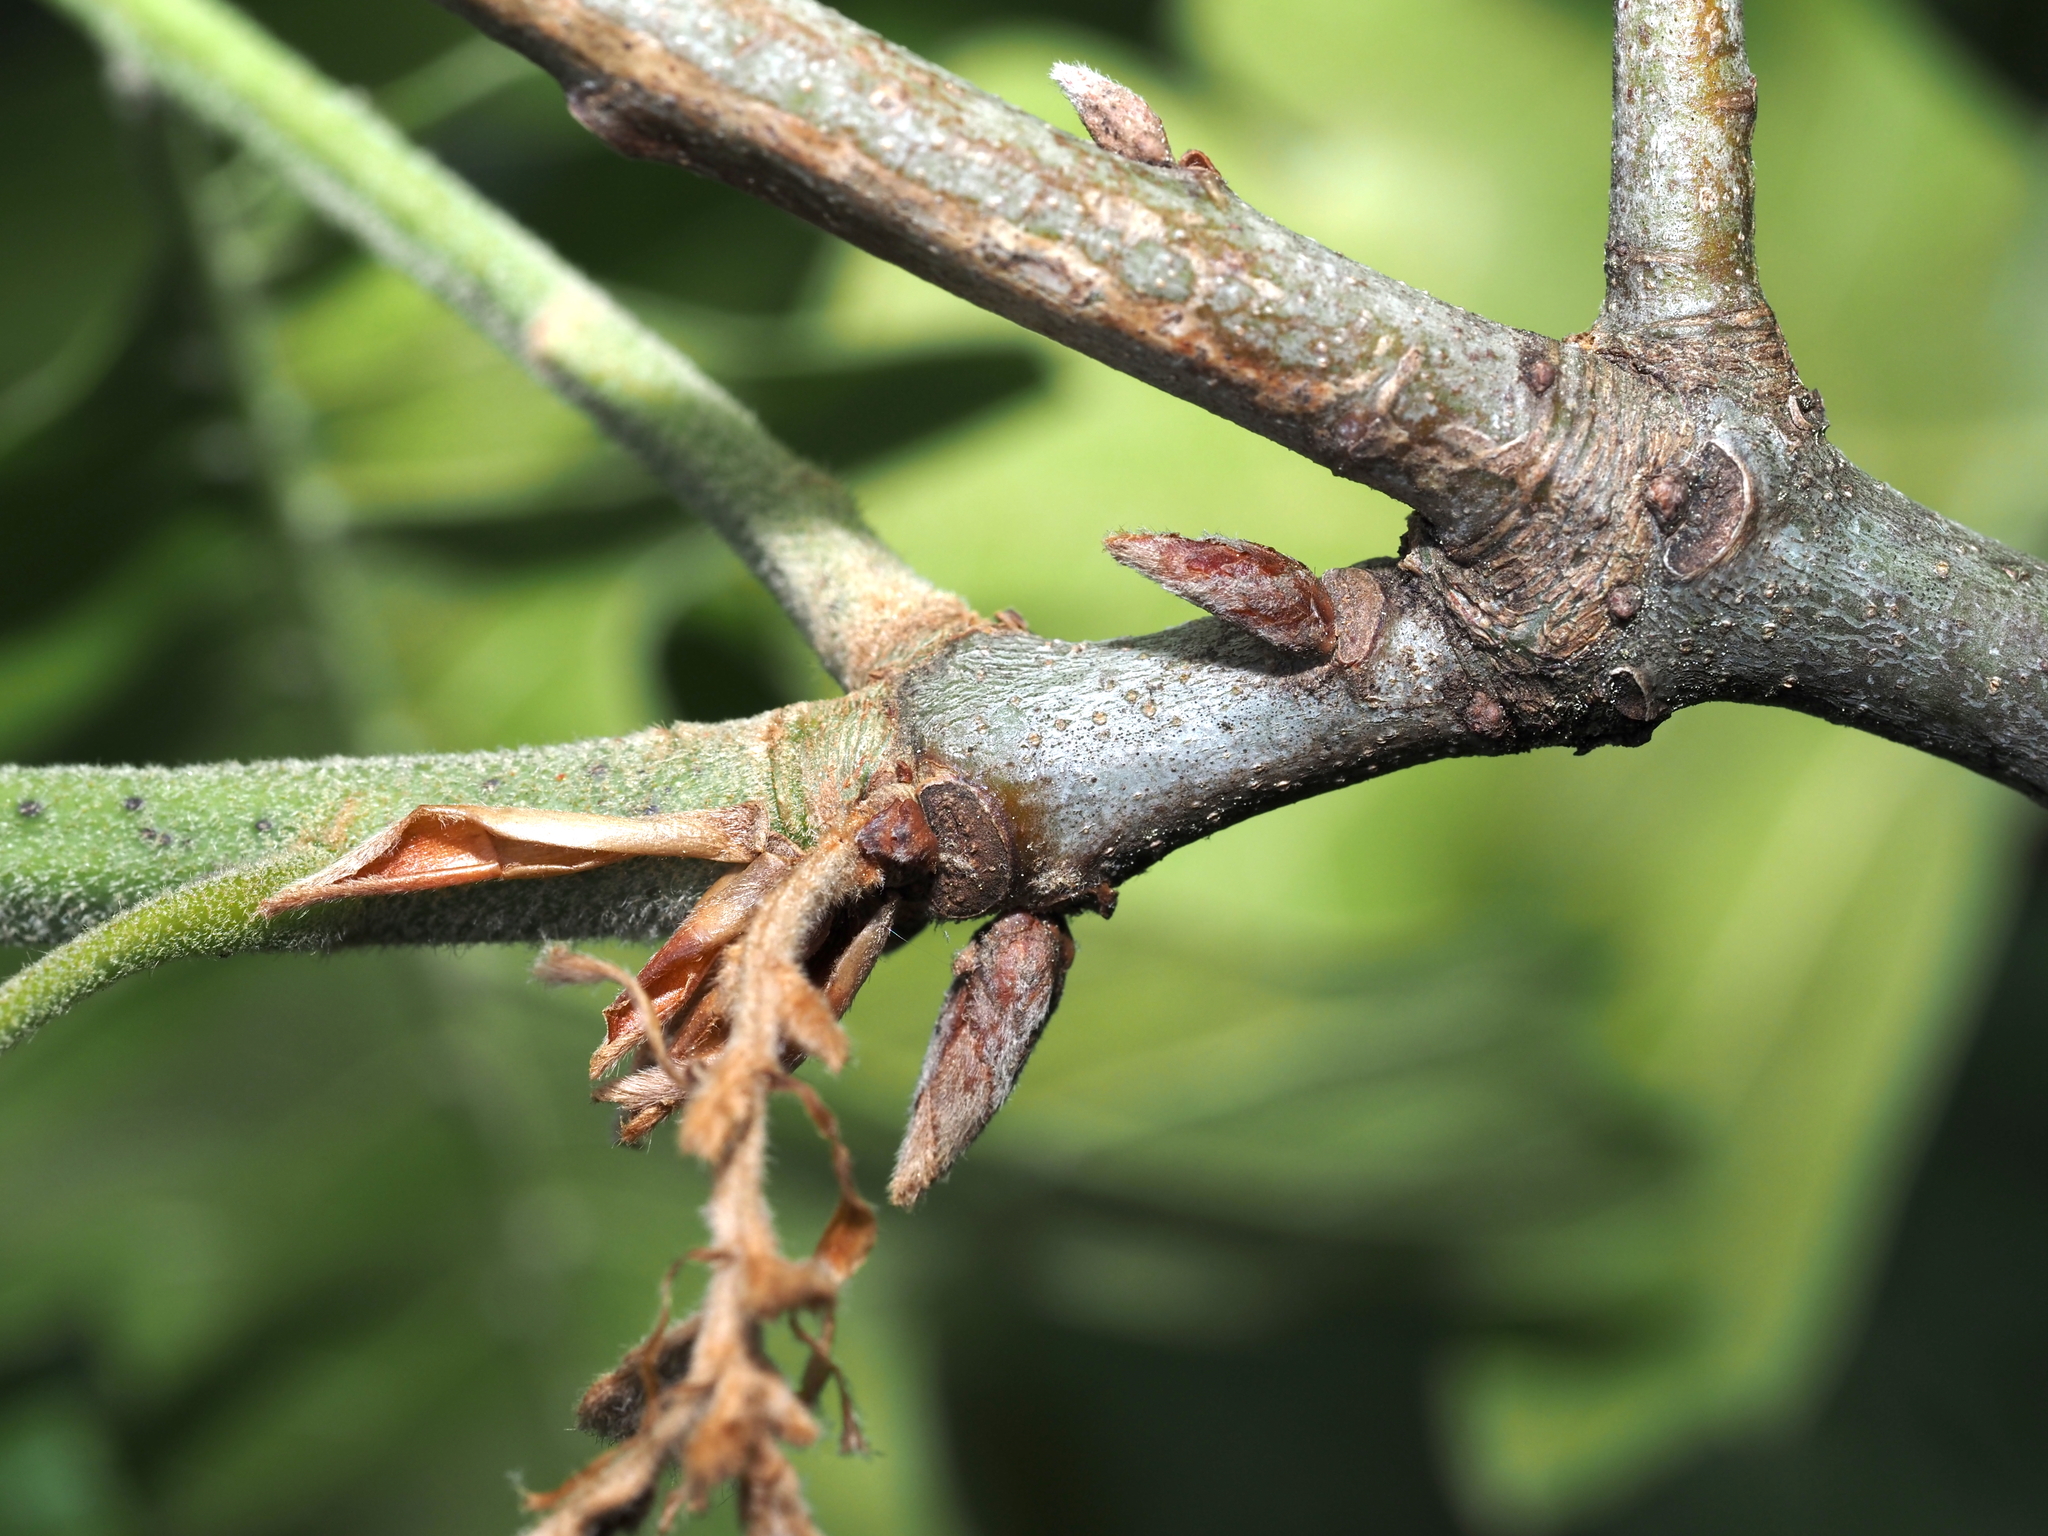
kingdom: Plantae
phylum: Tracheophyta
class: Magnoliopsida
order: Fagales
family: Fagaceae
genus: Quercus
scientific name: Quercus velutina
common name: Black oak
